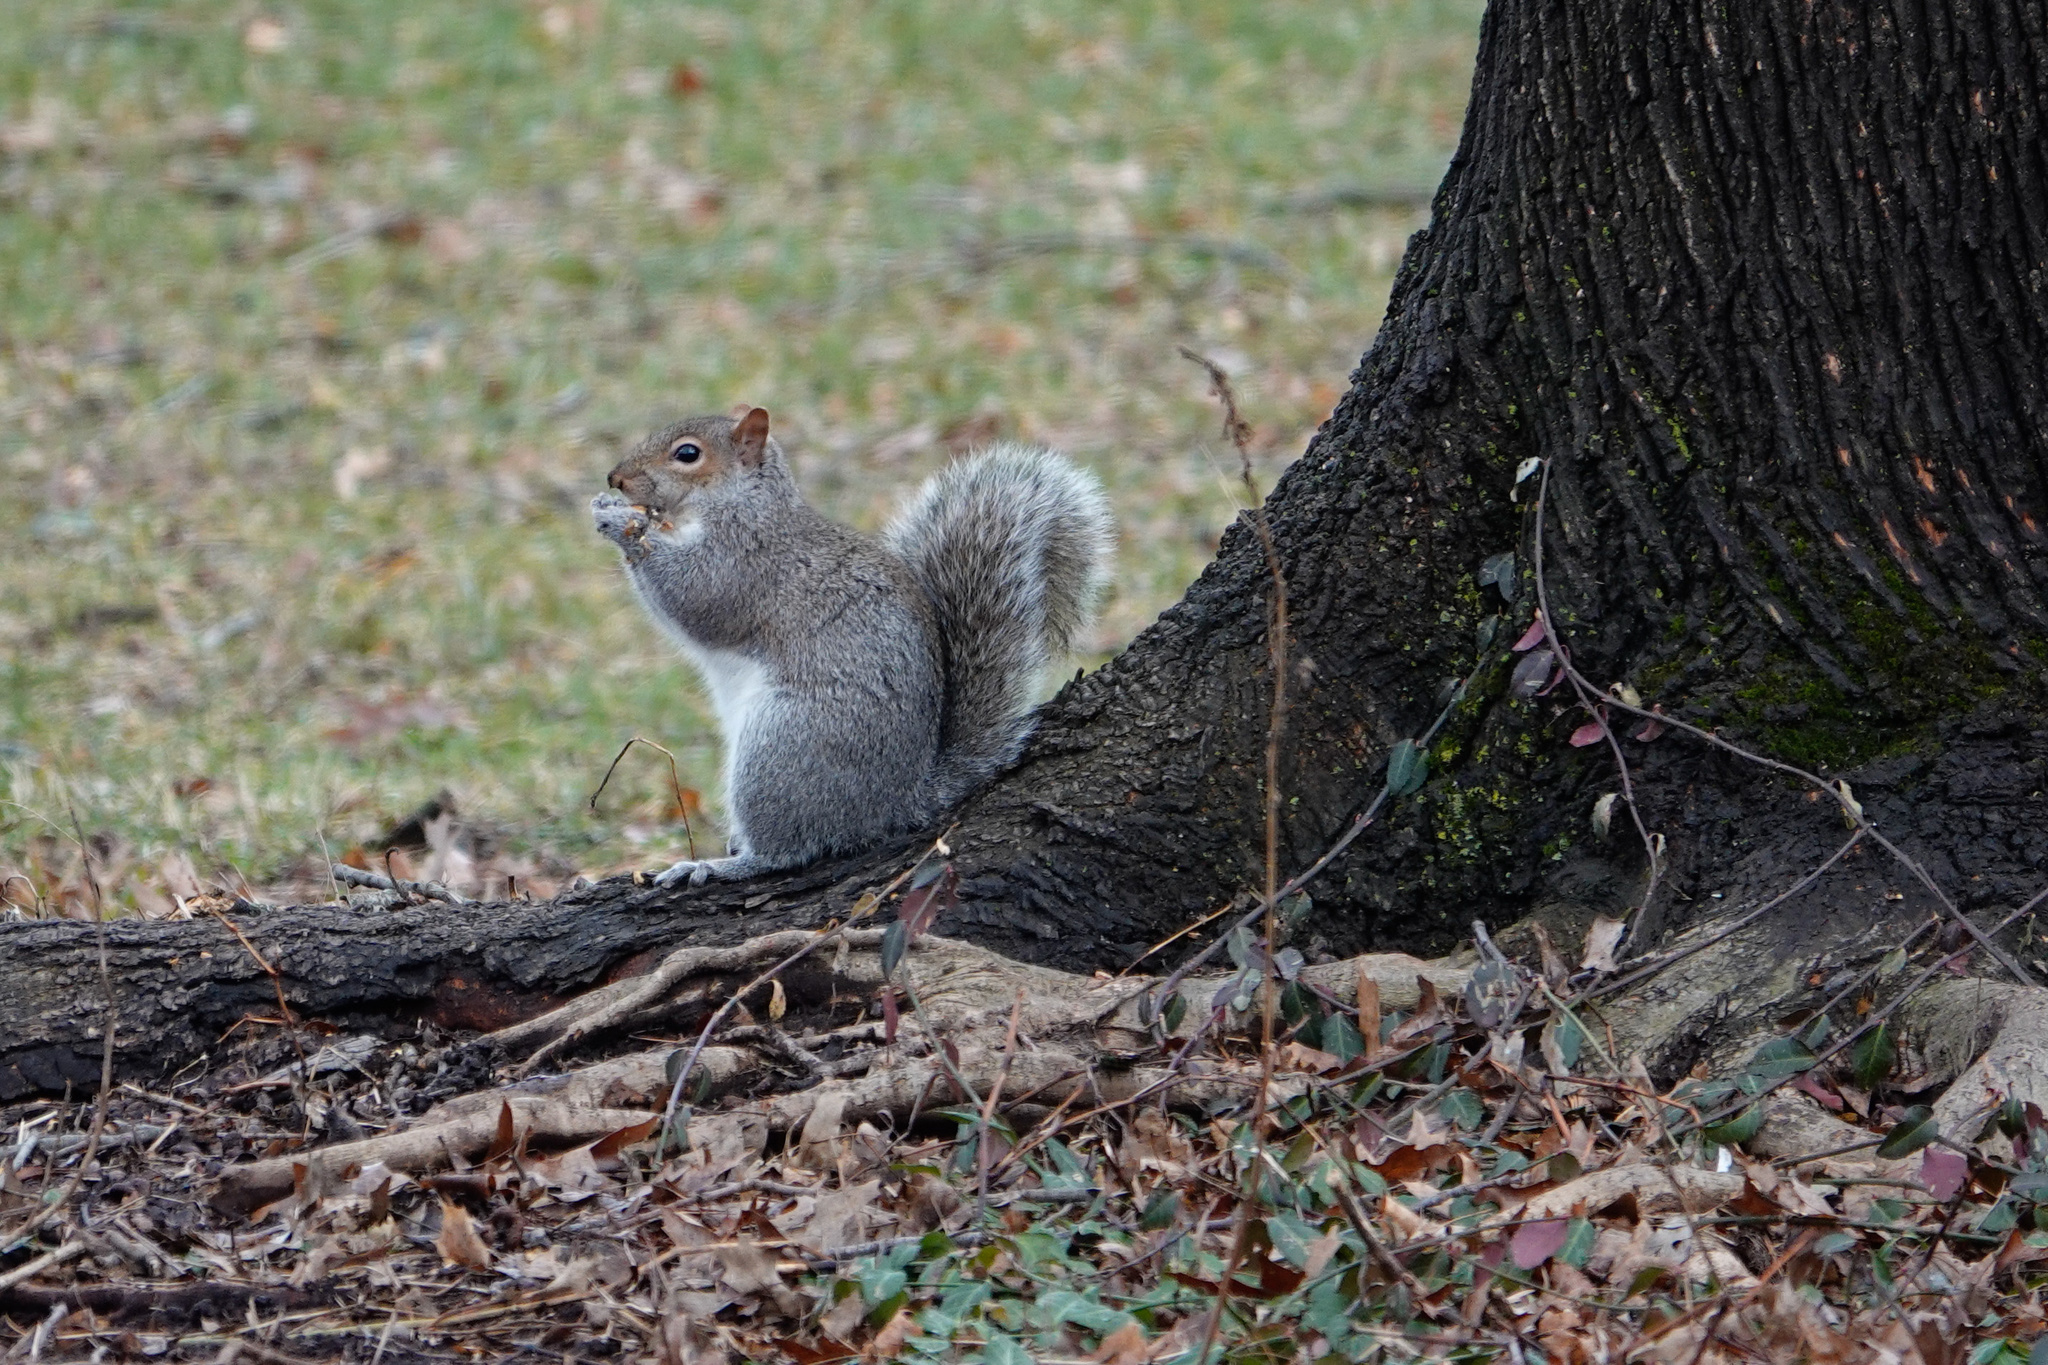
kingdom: Animalia
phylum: Chordata
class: Mammalia
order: Rodentia
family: Sciuridae
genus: Sciurus
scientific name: Sciurus carolinensis
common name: Eastern gray squirrel
